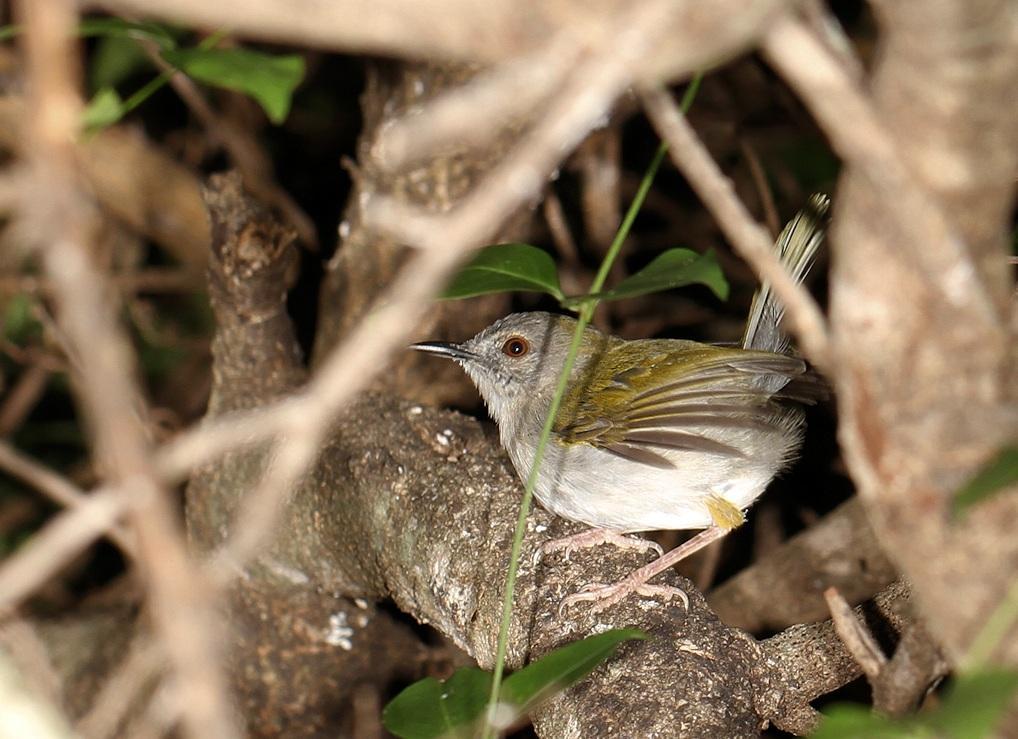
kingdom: Animalia
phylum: Chordata
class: Aves
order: Passeriformes
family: Cisticolidae
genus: Camaroptera
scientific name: Camaroptera brachyura
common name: Green-backed camaroptera
